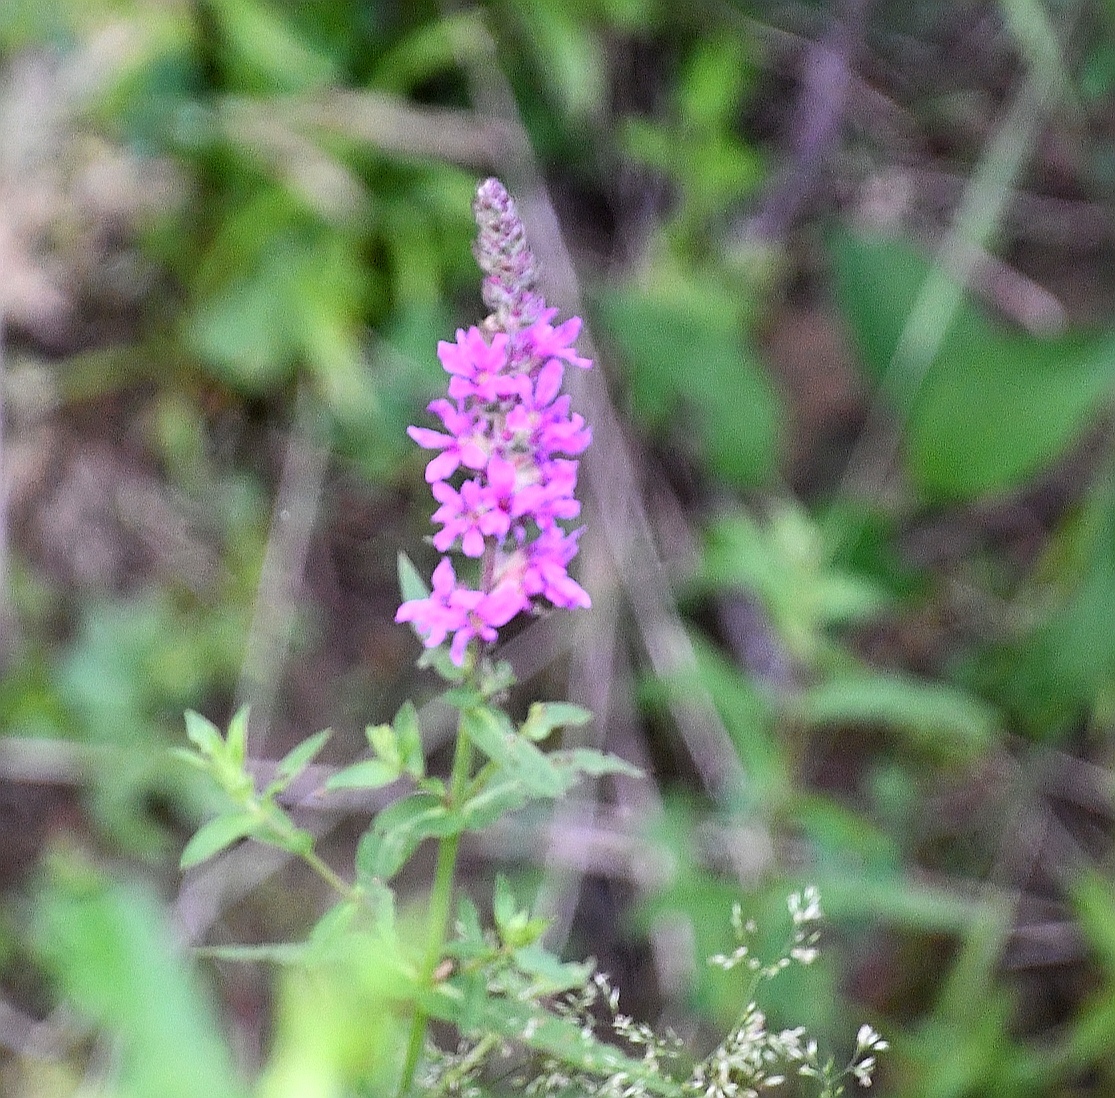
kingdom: Plantae
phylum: Tracheophyta
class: Magnoliopsida
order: Myrtales
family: Lythraceae
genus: Lythrum
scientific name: Lythrum salicaria
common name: Purple loosestrife
